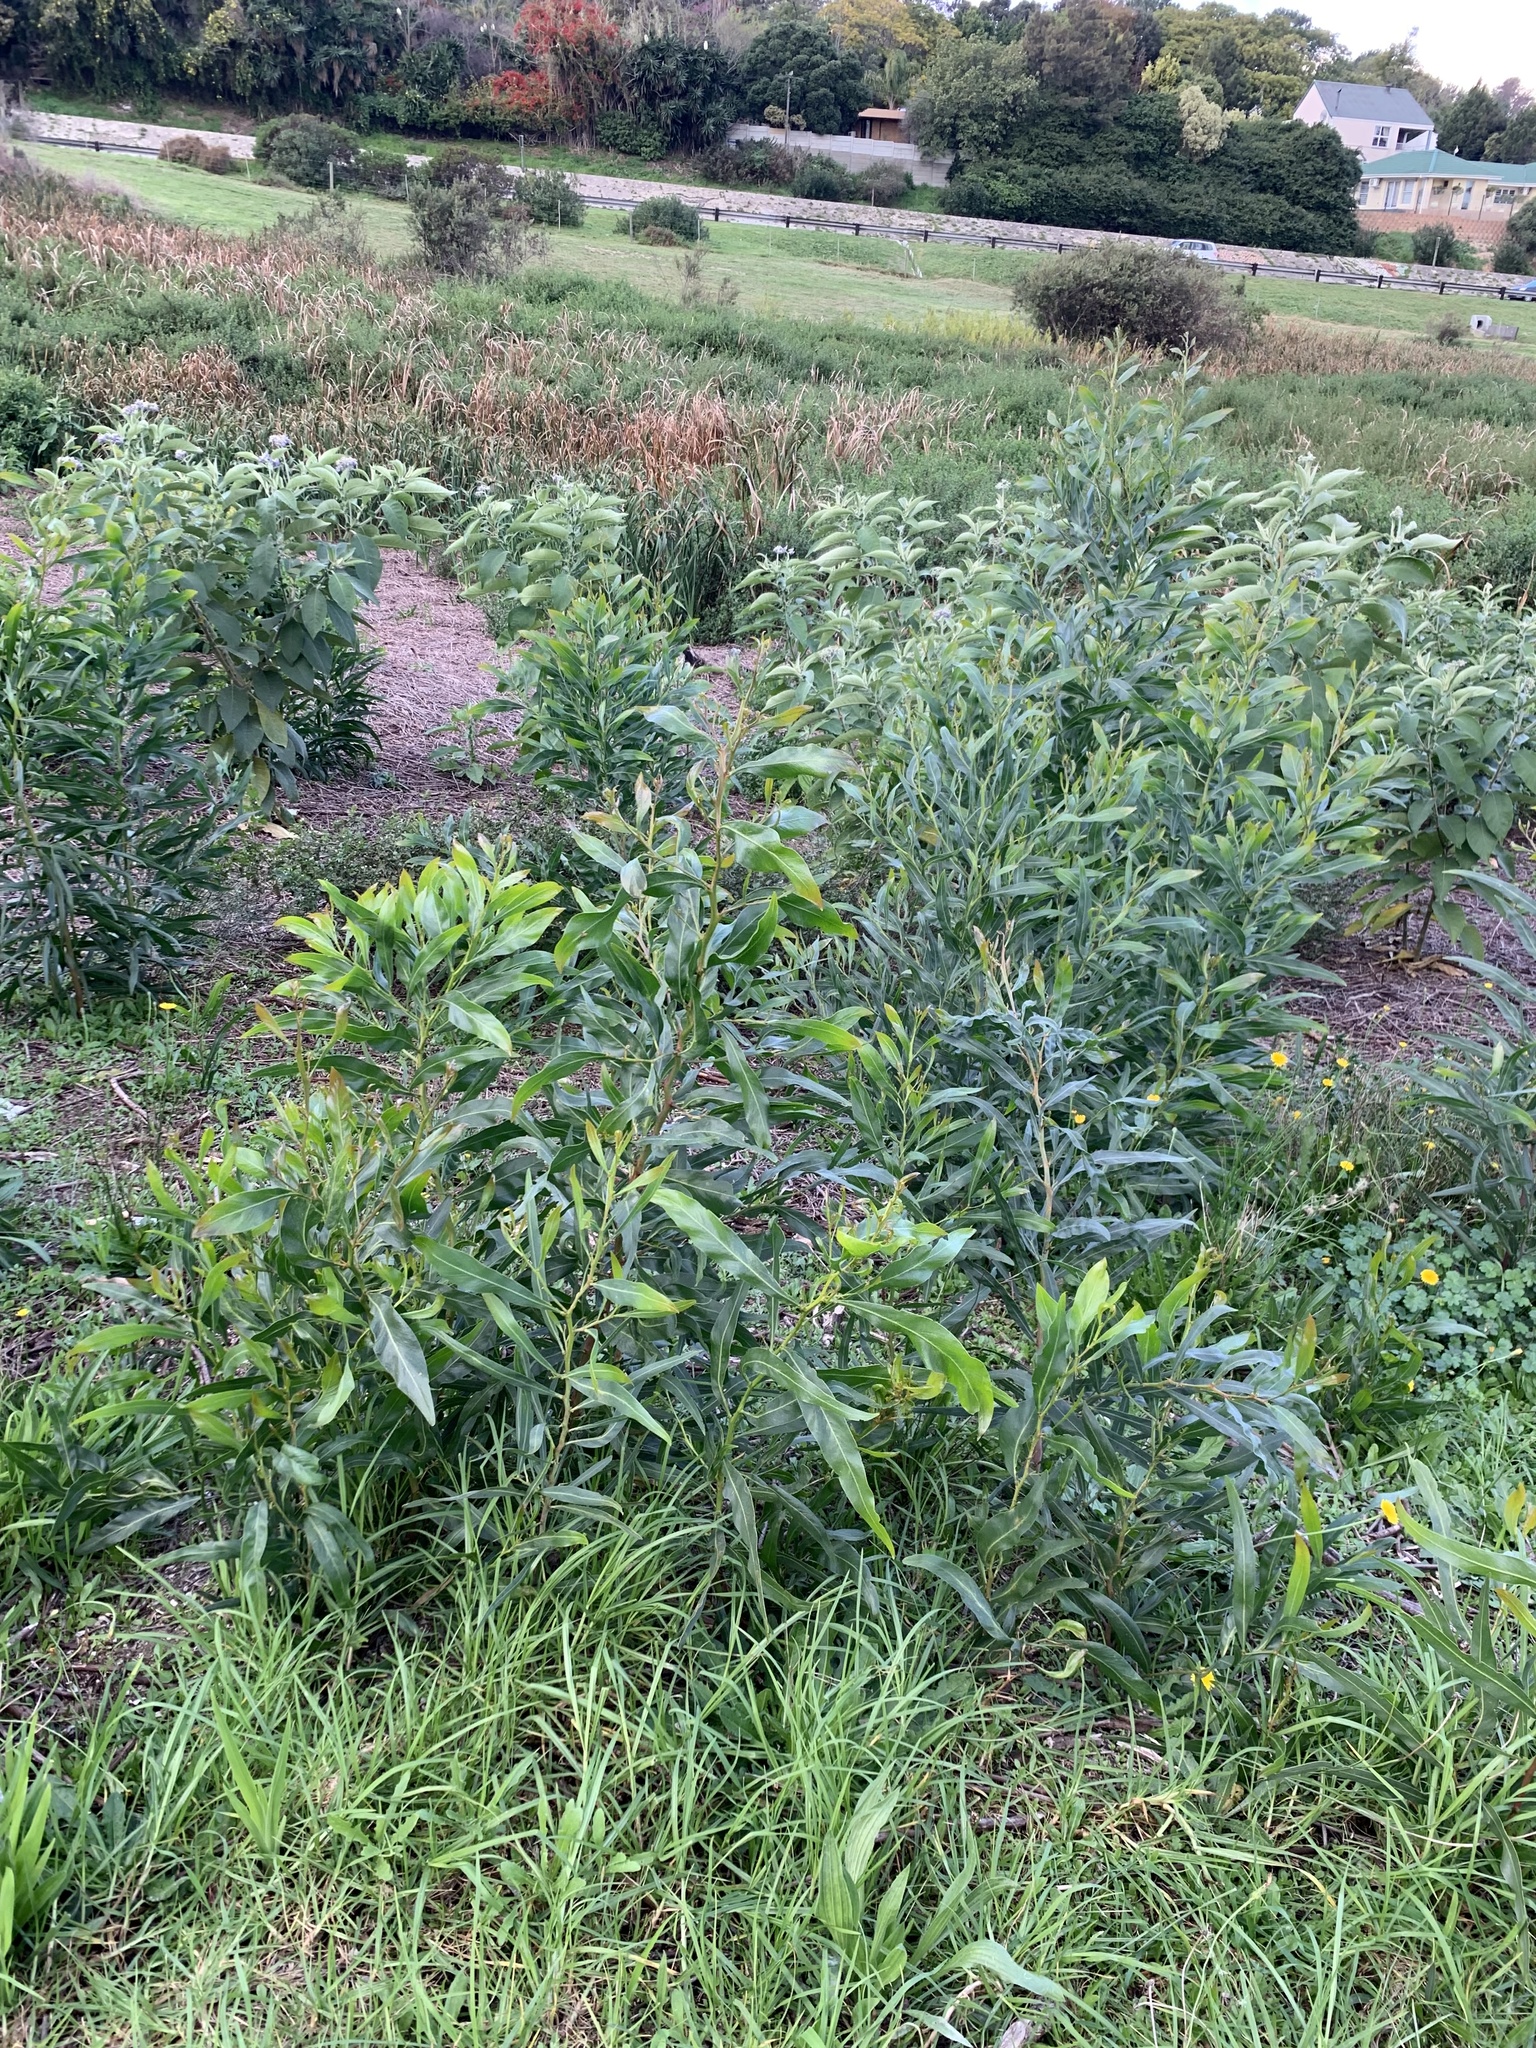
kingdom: Plantae
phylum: Tracheophyta
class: Magnoliopsida
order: Fabales
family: Fabaceae
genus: Acacia
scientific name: Acacia saligna
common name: Orange wattle
